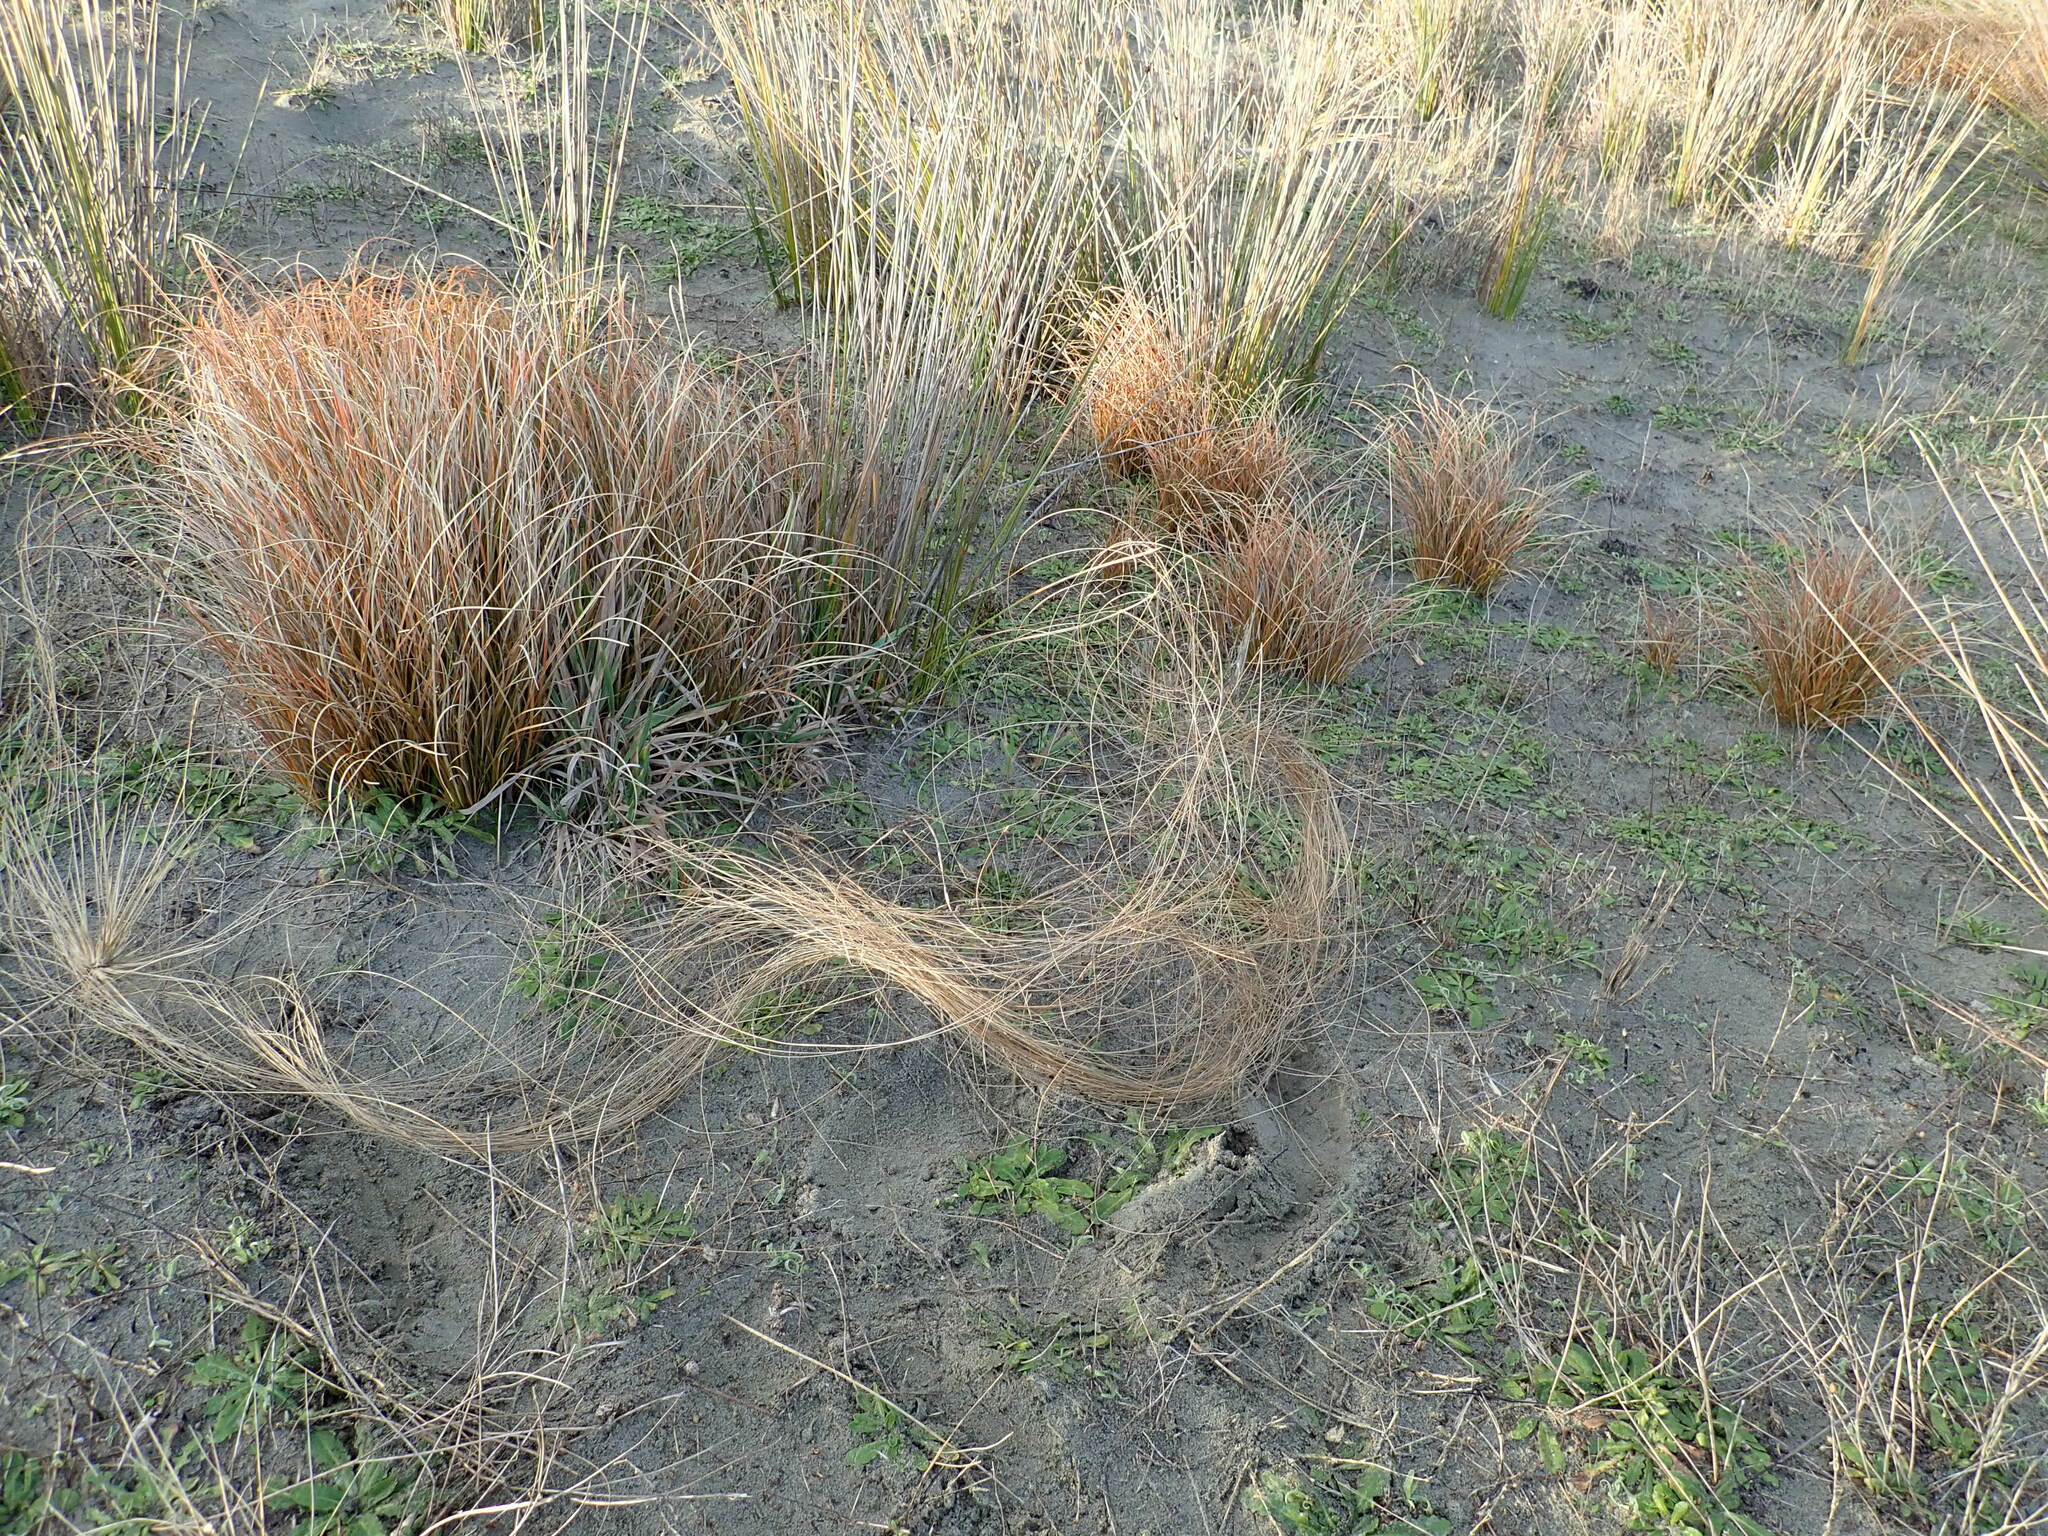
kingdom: Plantae
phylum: Tracheophyta
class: Liliopsida
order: Poales
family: Cyperaceae
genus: Carex
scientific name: Carex testacea
